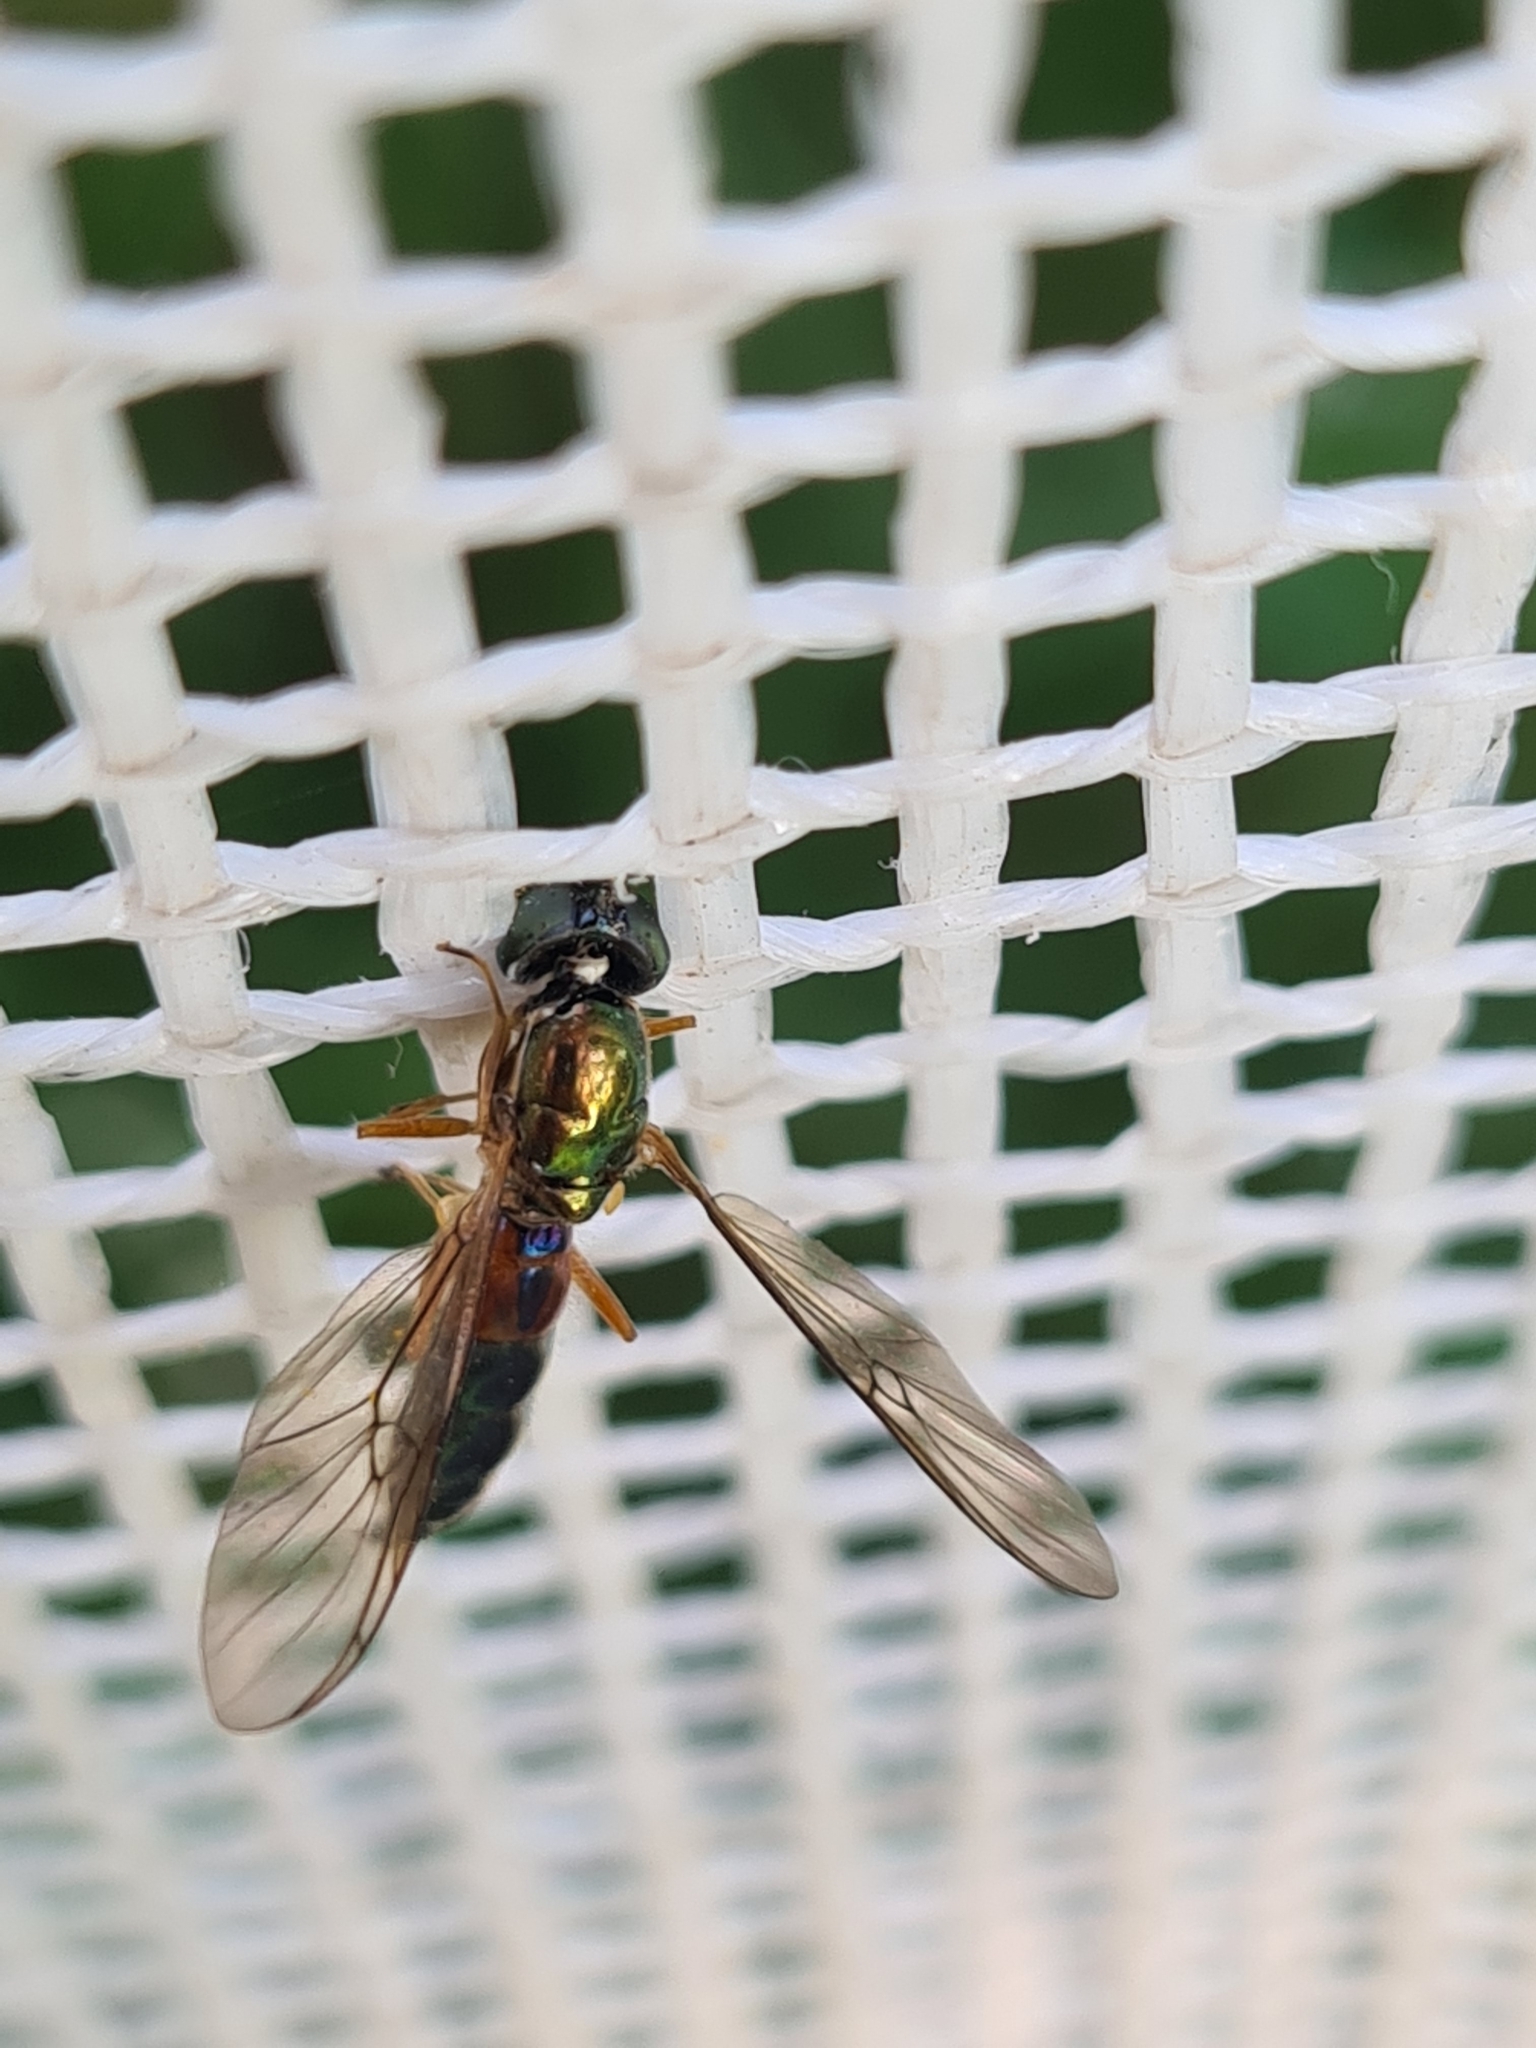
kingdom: Animalia
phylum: Arthropoda
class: Insecta
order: Diptera
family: Stratiomyidae
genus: Sargus
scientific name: Sargus bipunctatus
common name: Twin-spot centurion
